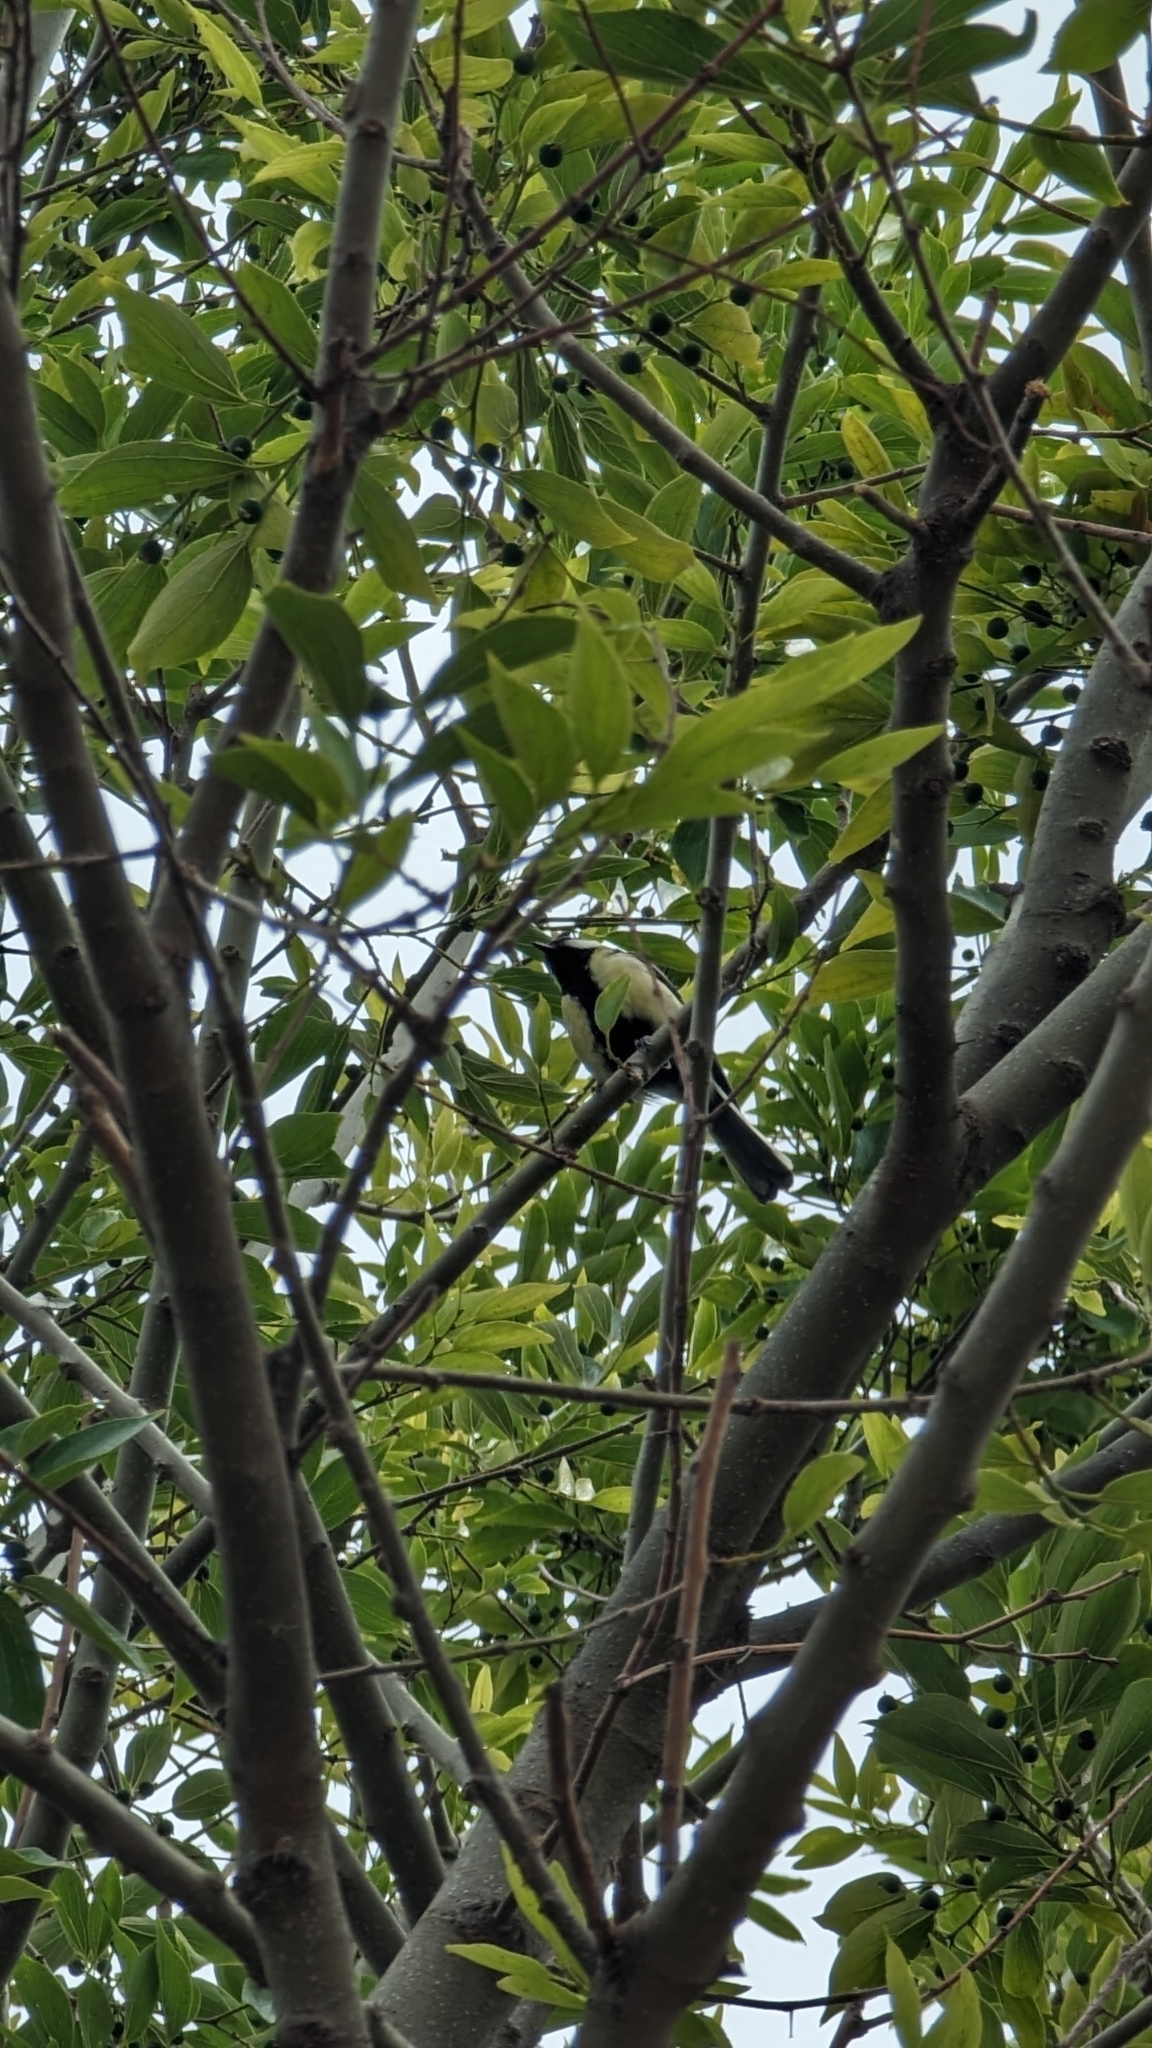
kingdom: Animalia
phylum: Chordata
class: Aves
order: Passeriformes
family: Paridae
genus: Parus
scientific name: Parus major
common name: Great tit
